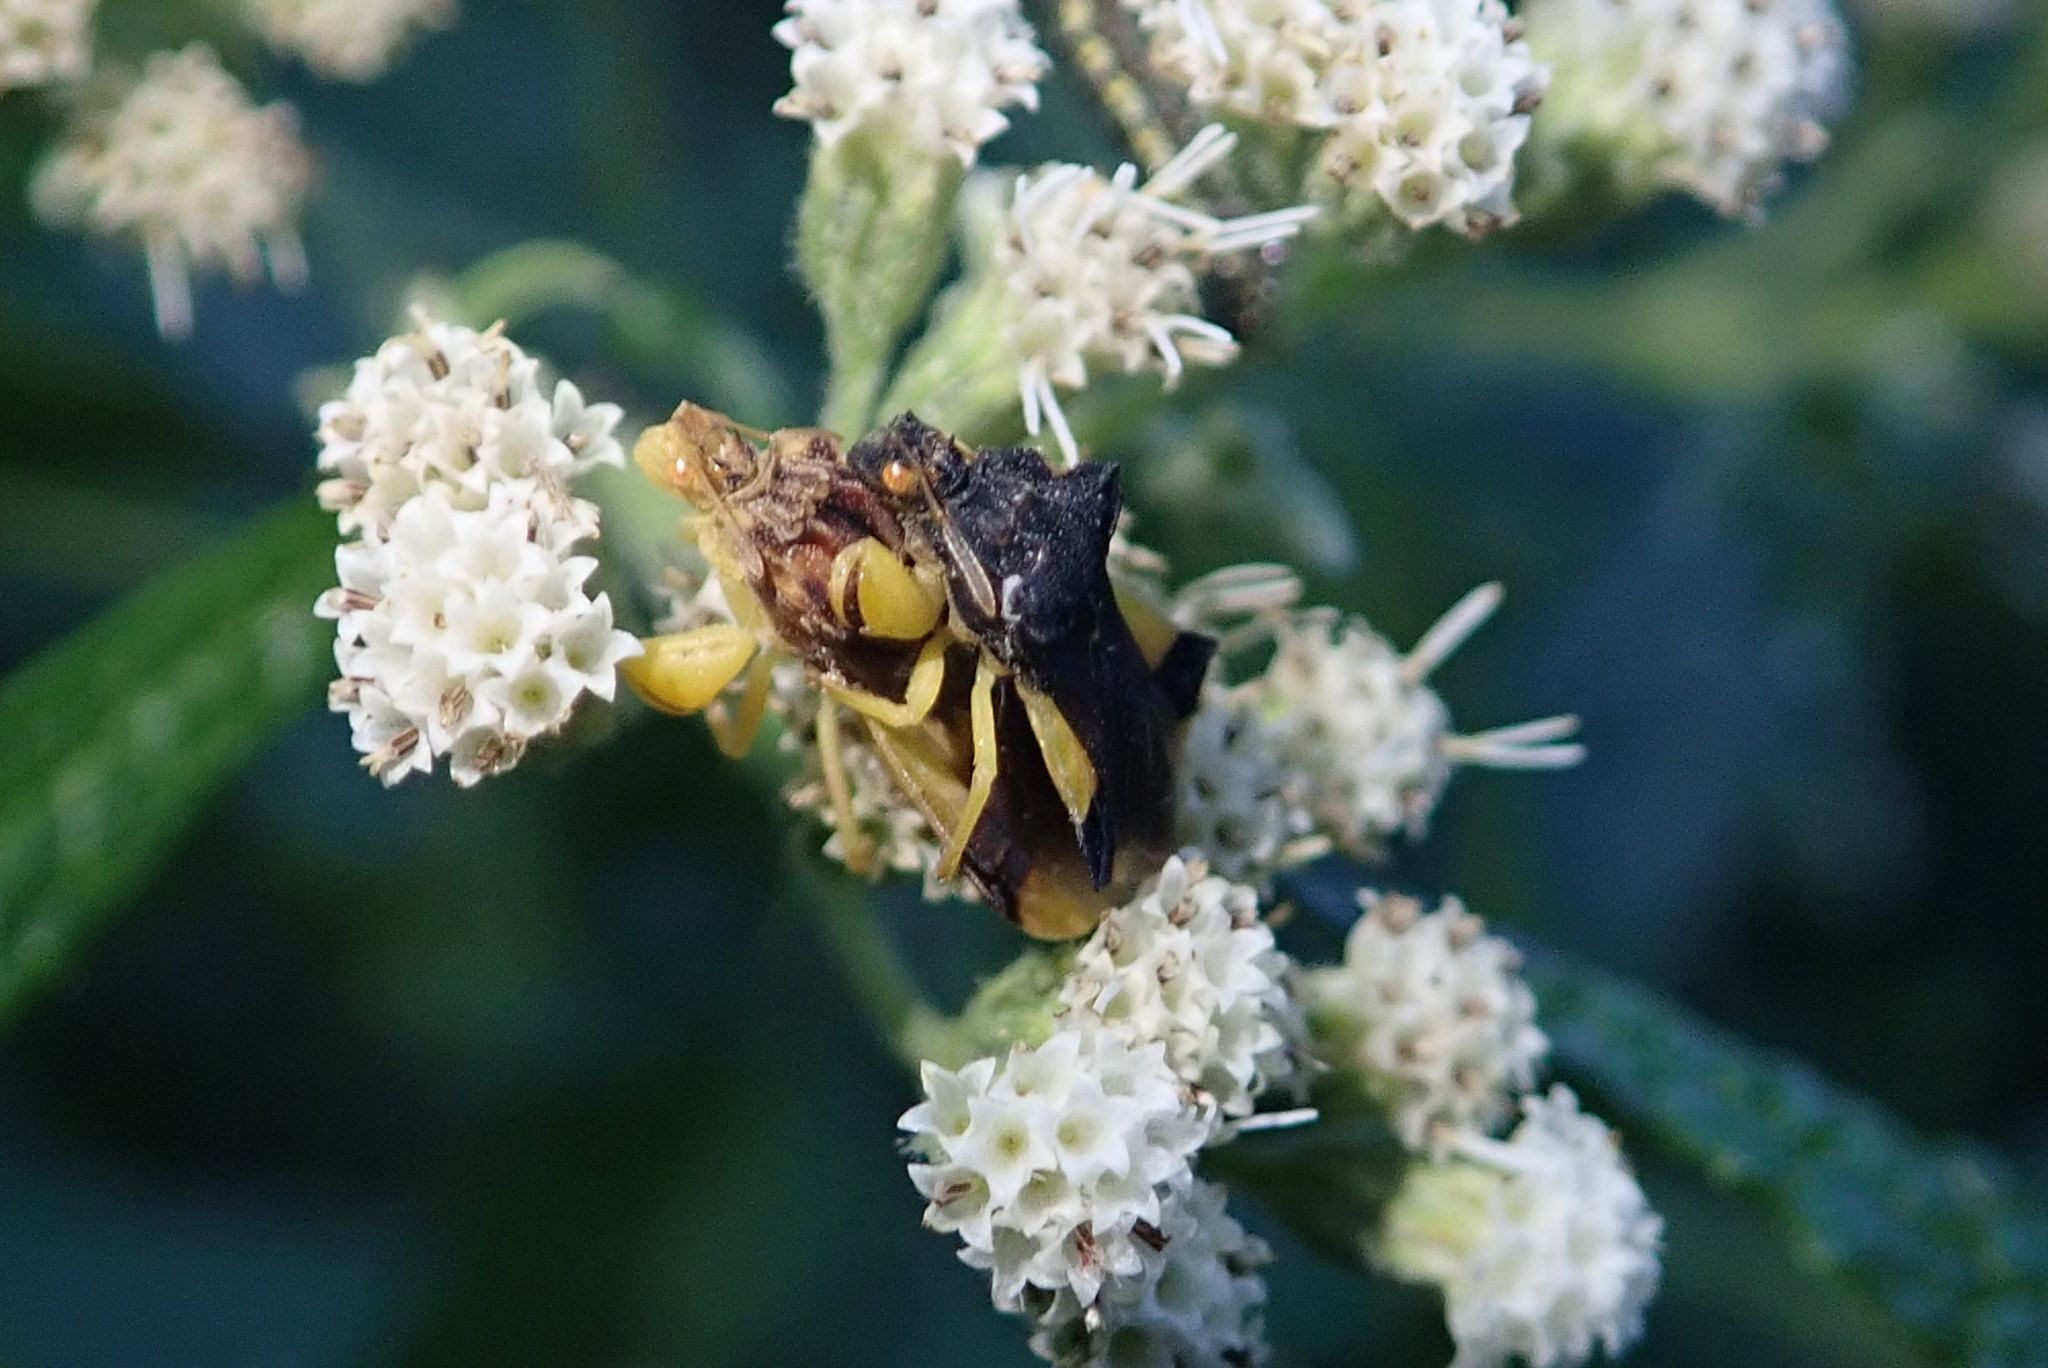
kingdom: Animalia
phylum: Arthropoda
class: Insecta
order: Hemiptera
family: Reduviidae
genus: Phymata
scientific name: Phymata pennsylvanica
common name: Pennsylvania ambush bug
